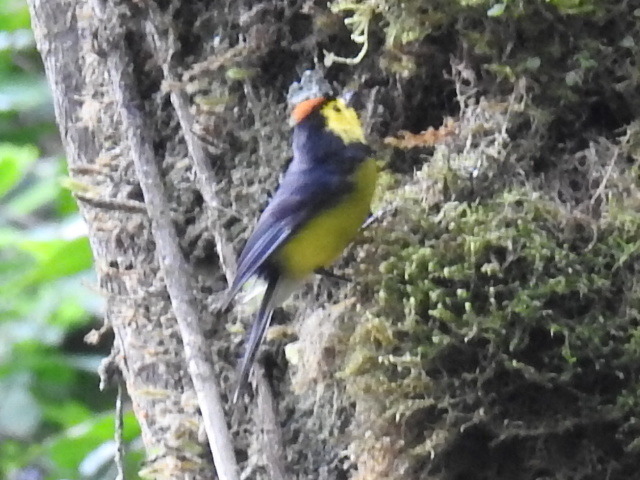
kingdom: Animalia
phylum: Chordata
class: Aves
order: Passeriformes
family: Parulidae
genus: Myioborus
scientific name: Myioborus torquatus
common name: Collared whitestart
